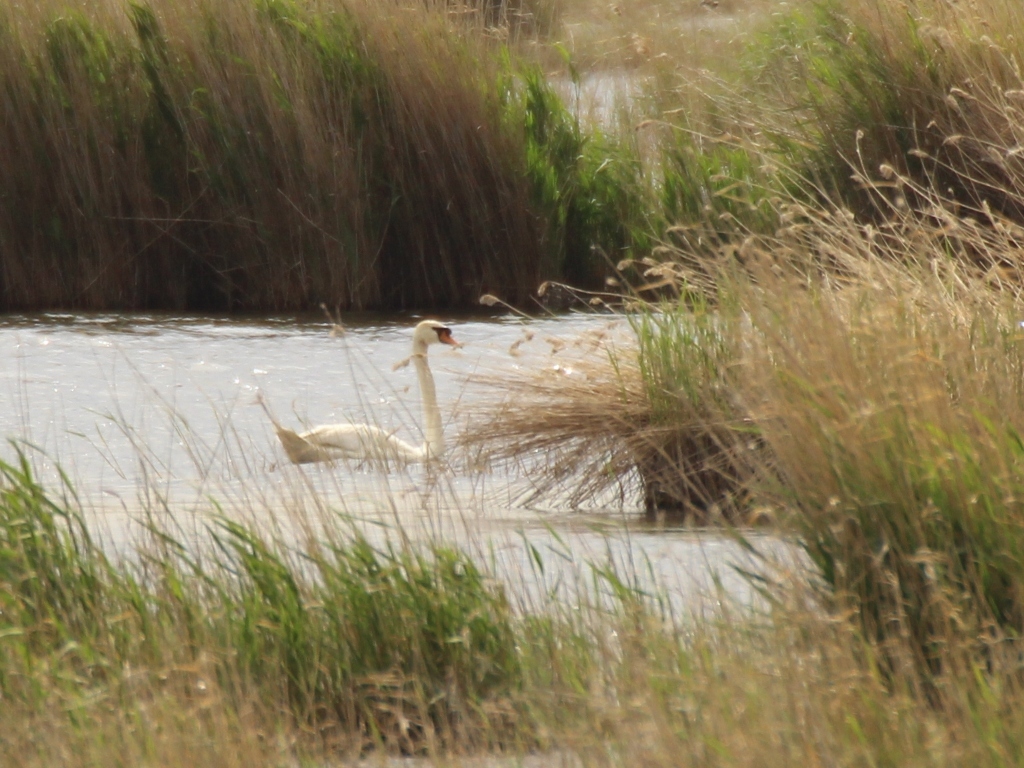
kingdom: Animalia
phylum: Chordata
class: Aves
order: Anseriformes
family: Anatidae
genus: Cygnus
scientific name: Cygnus olor
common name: Mute swan
